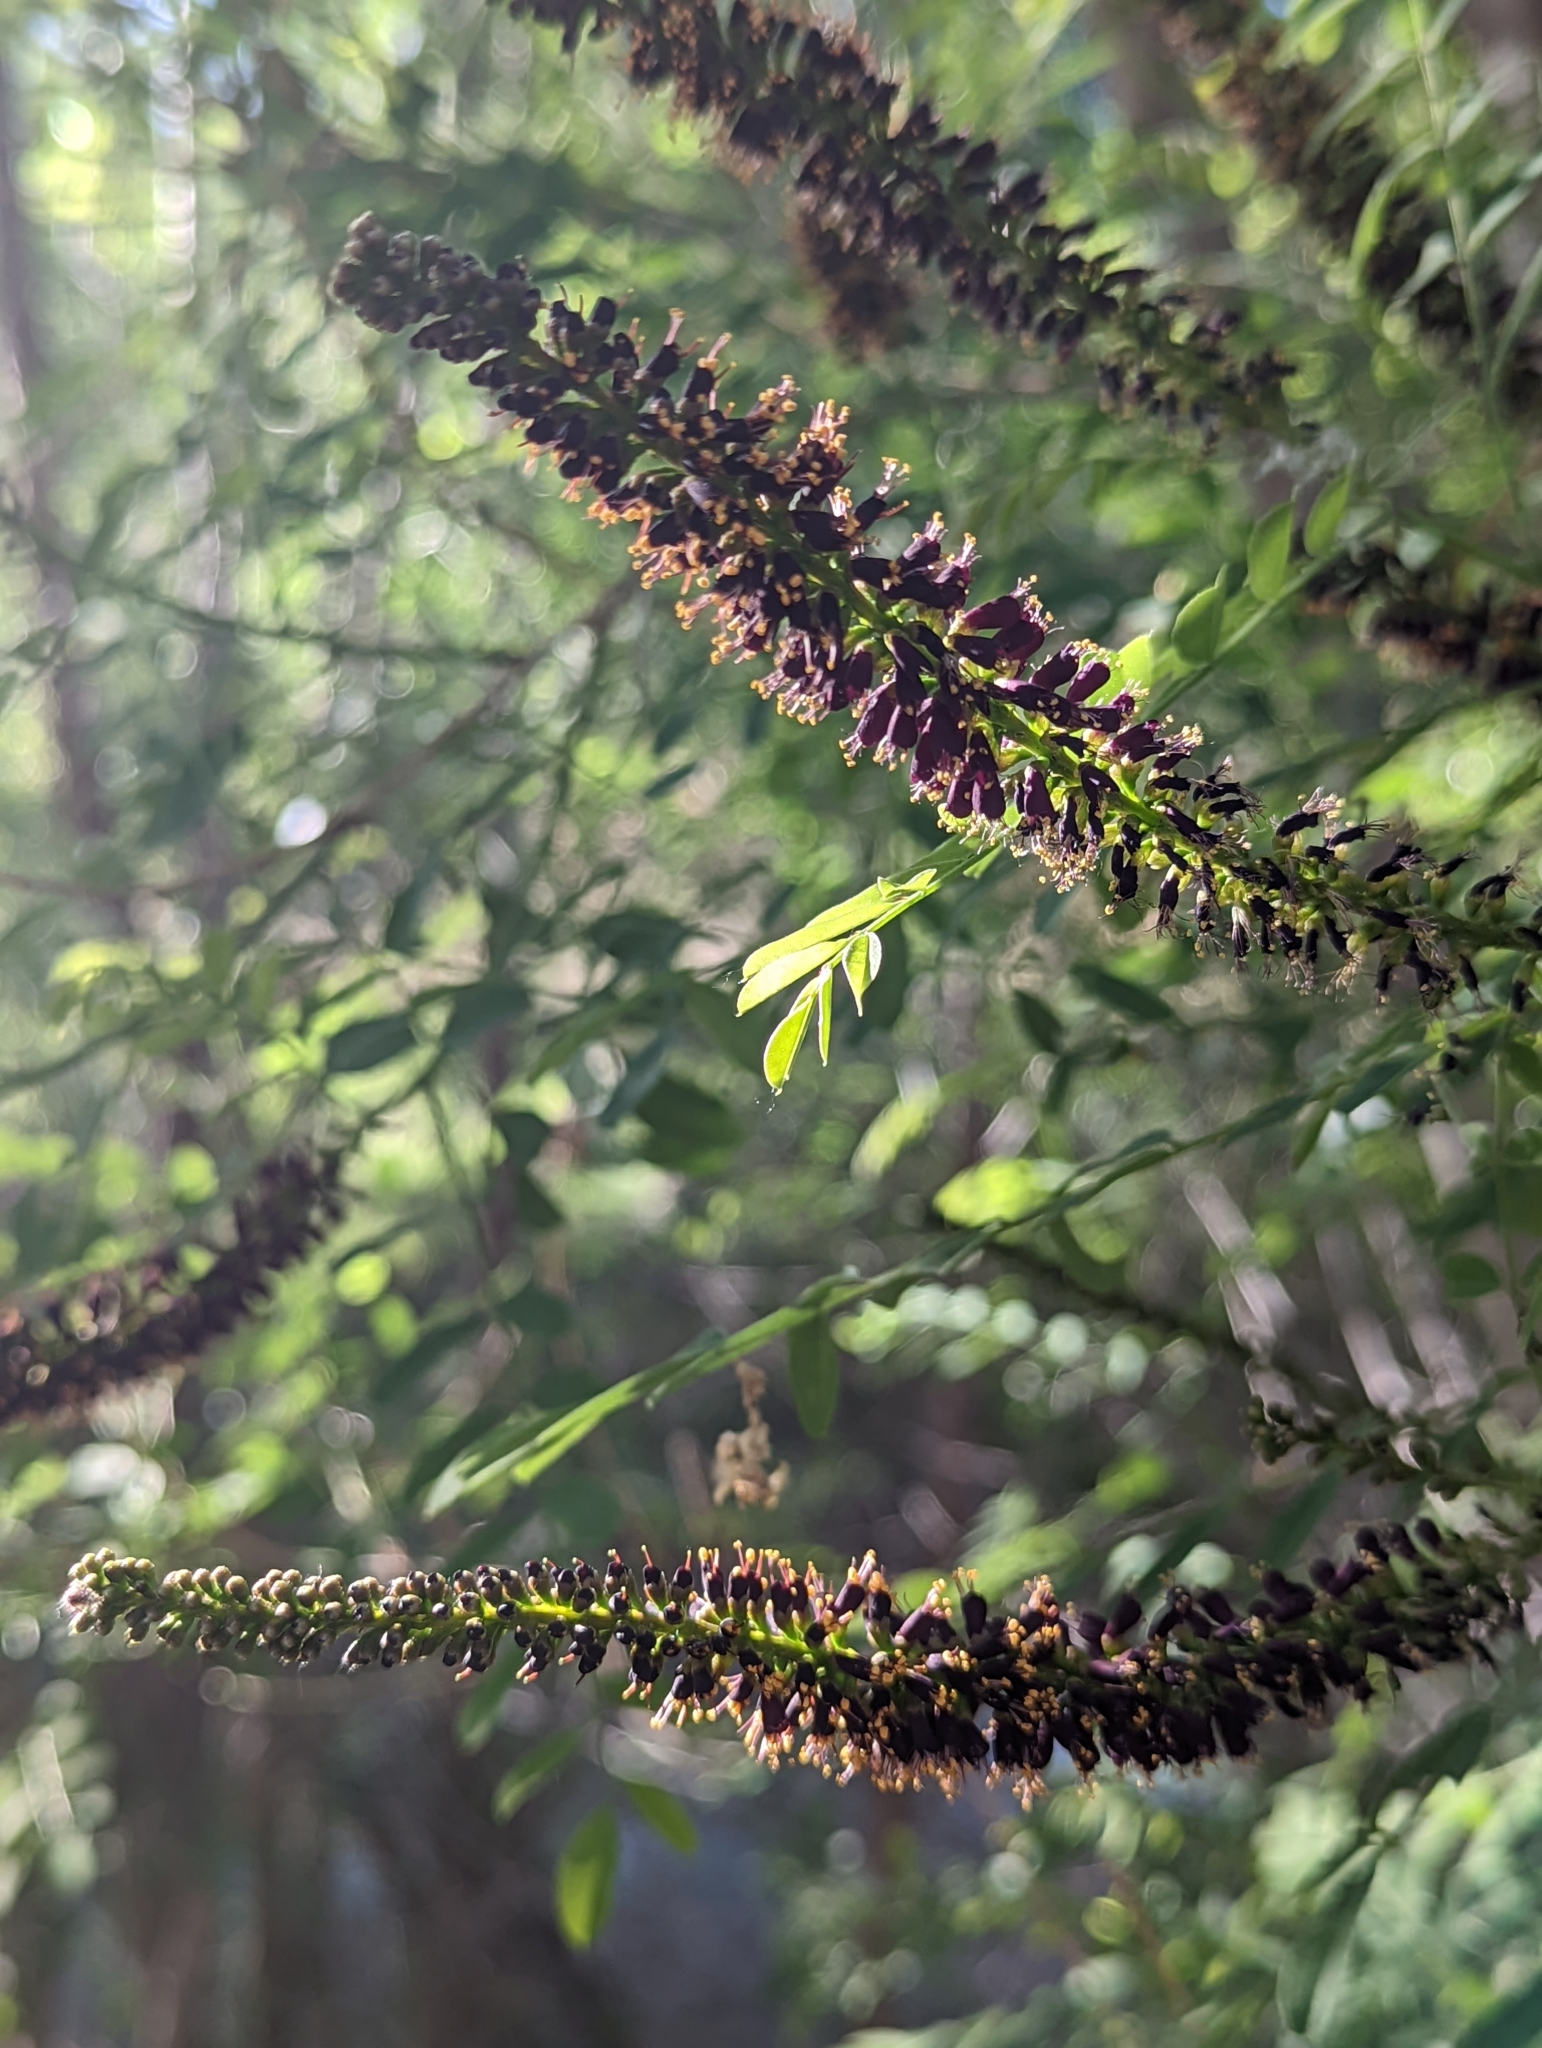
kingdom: Plantae
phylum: Tracheophyta
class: Magnoliopsida
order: Fabales
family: Fabaceae
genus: Amorpha
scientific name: Amorpha fruticosa
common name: False indigo
